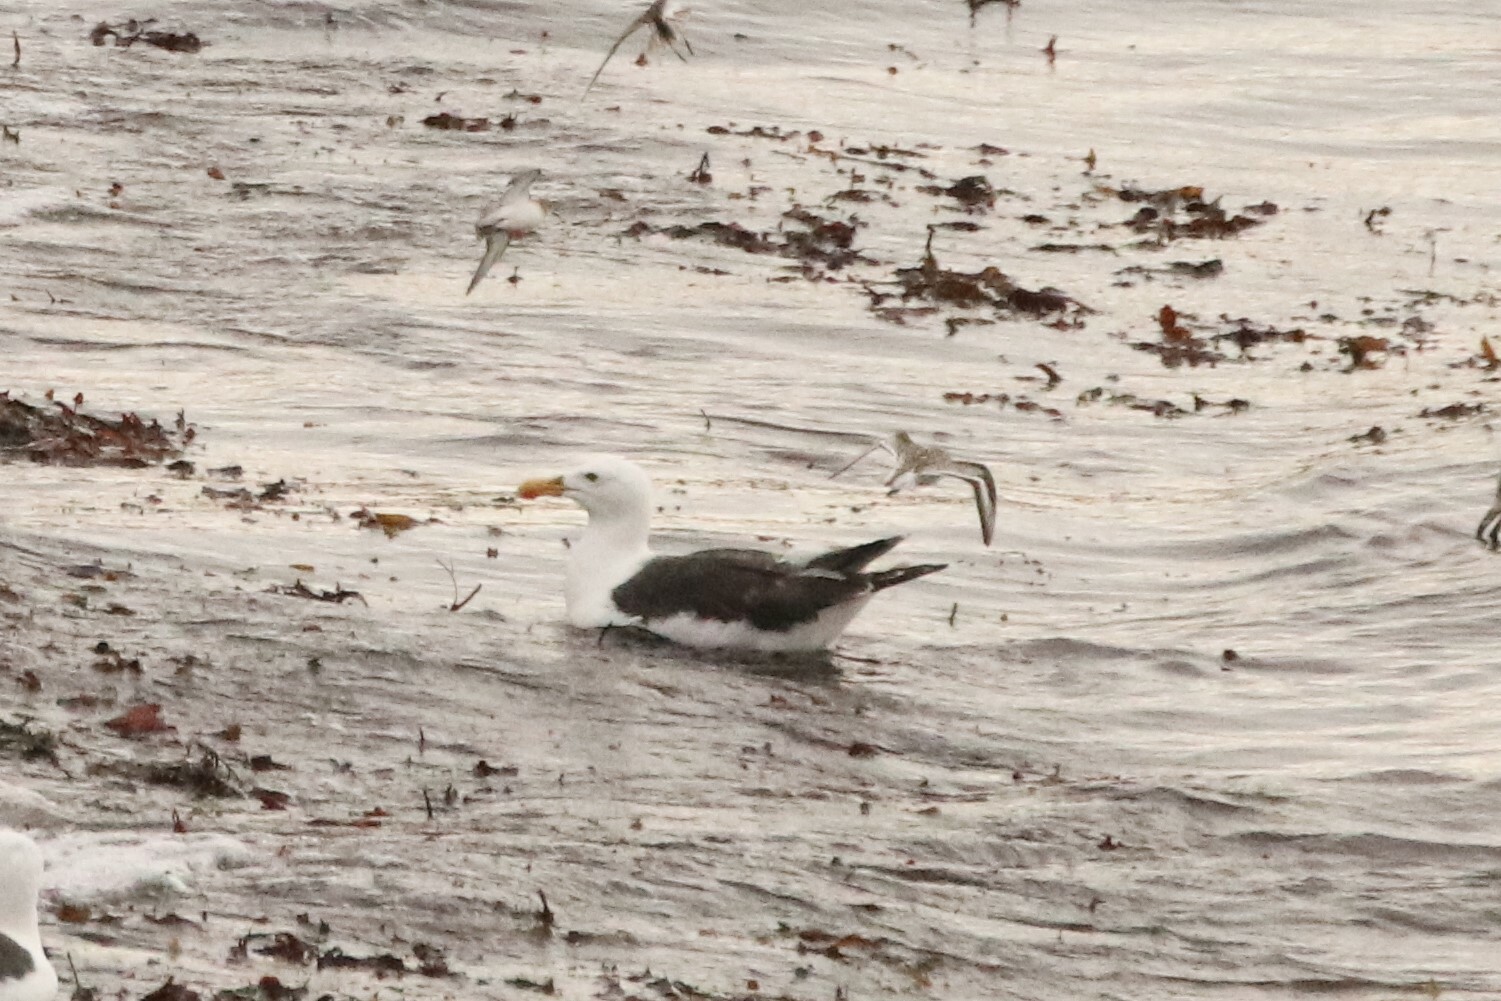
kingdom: Animalia
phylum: Chordata
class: Aves
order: Charadriiformes
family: Laridae
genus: Larus
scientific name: Larus marinus
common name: Great black-backed gull
